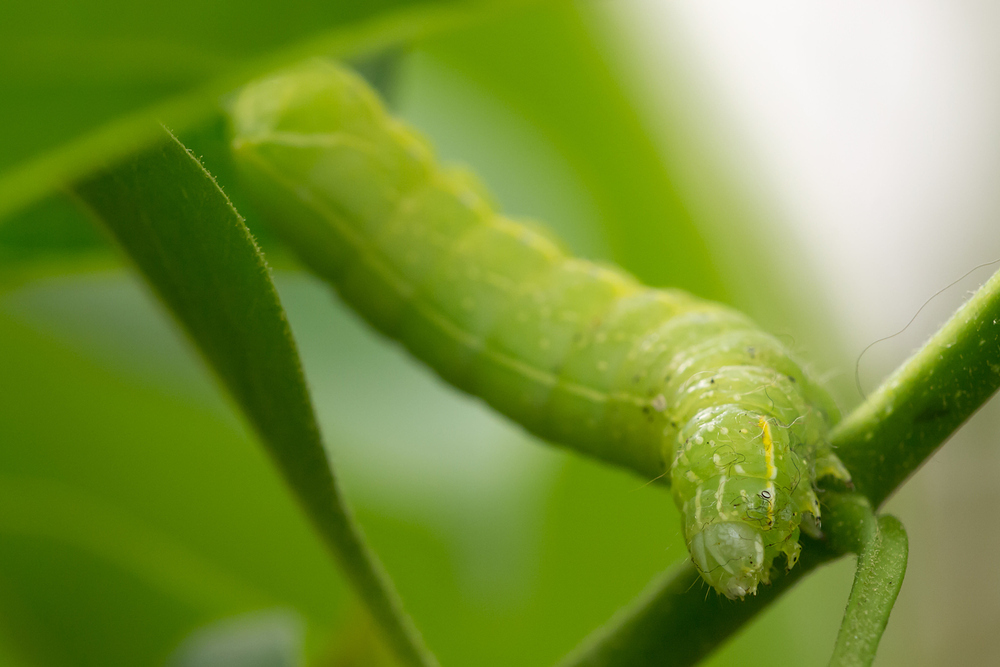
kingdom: Animalia
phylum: Arthropoda
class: Insecta
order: Lepidoptera
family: Noctuidae
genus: Amphipyra
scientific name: Amphipyra pyramidea
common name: Copper underwing
